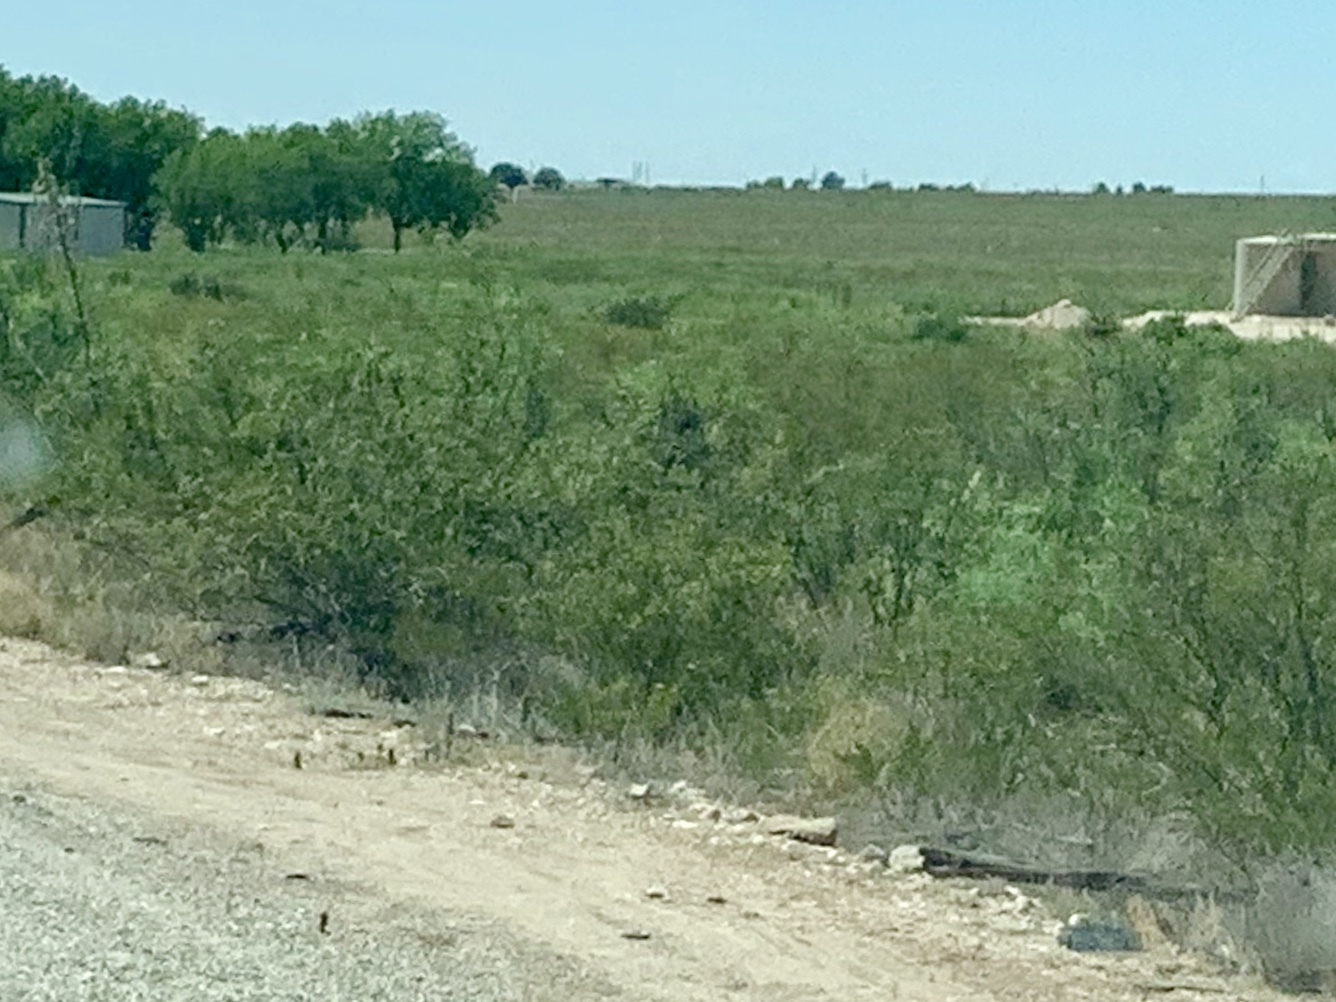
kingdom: Plantae
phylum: Tracheophyta
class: Magnoliopsida
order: Zygophyllales
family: Zygophyllaceae
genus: Larrea
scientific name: Larrea tridentata
